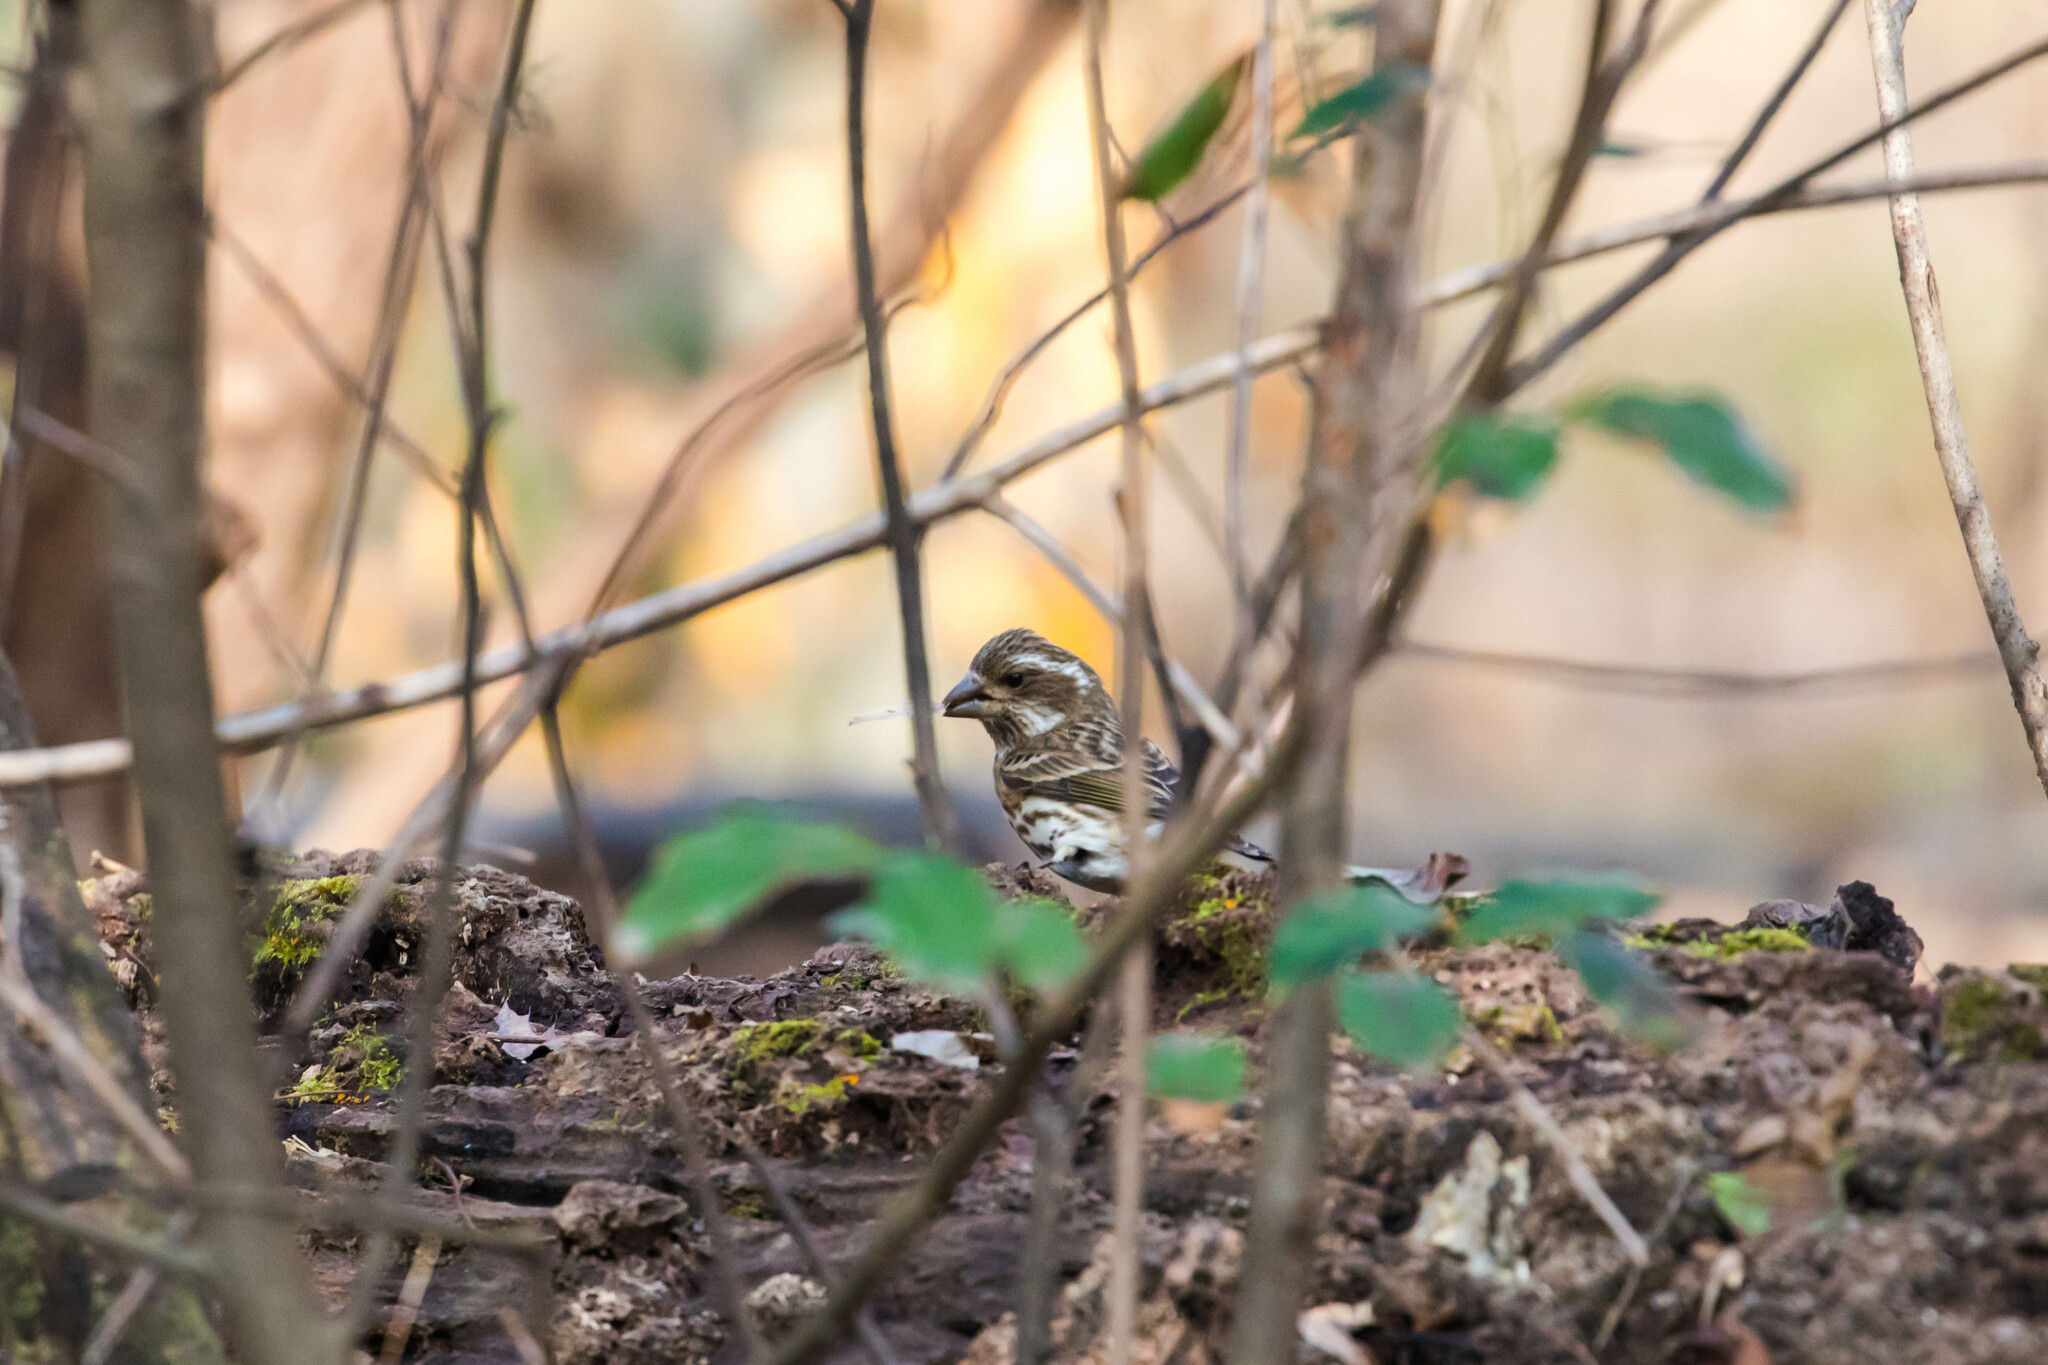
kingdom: Animalia
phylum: Chordata
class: Aves
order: Passeriformes
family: Fringillidae
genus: Haemorhous
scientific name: Haemorhous purpureus
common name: Purple finch
